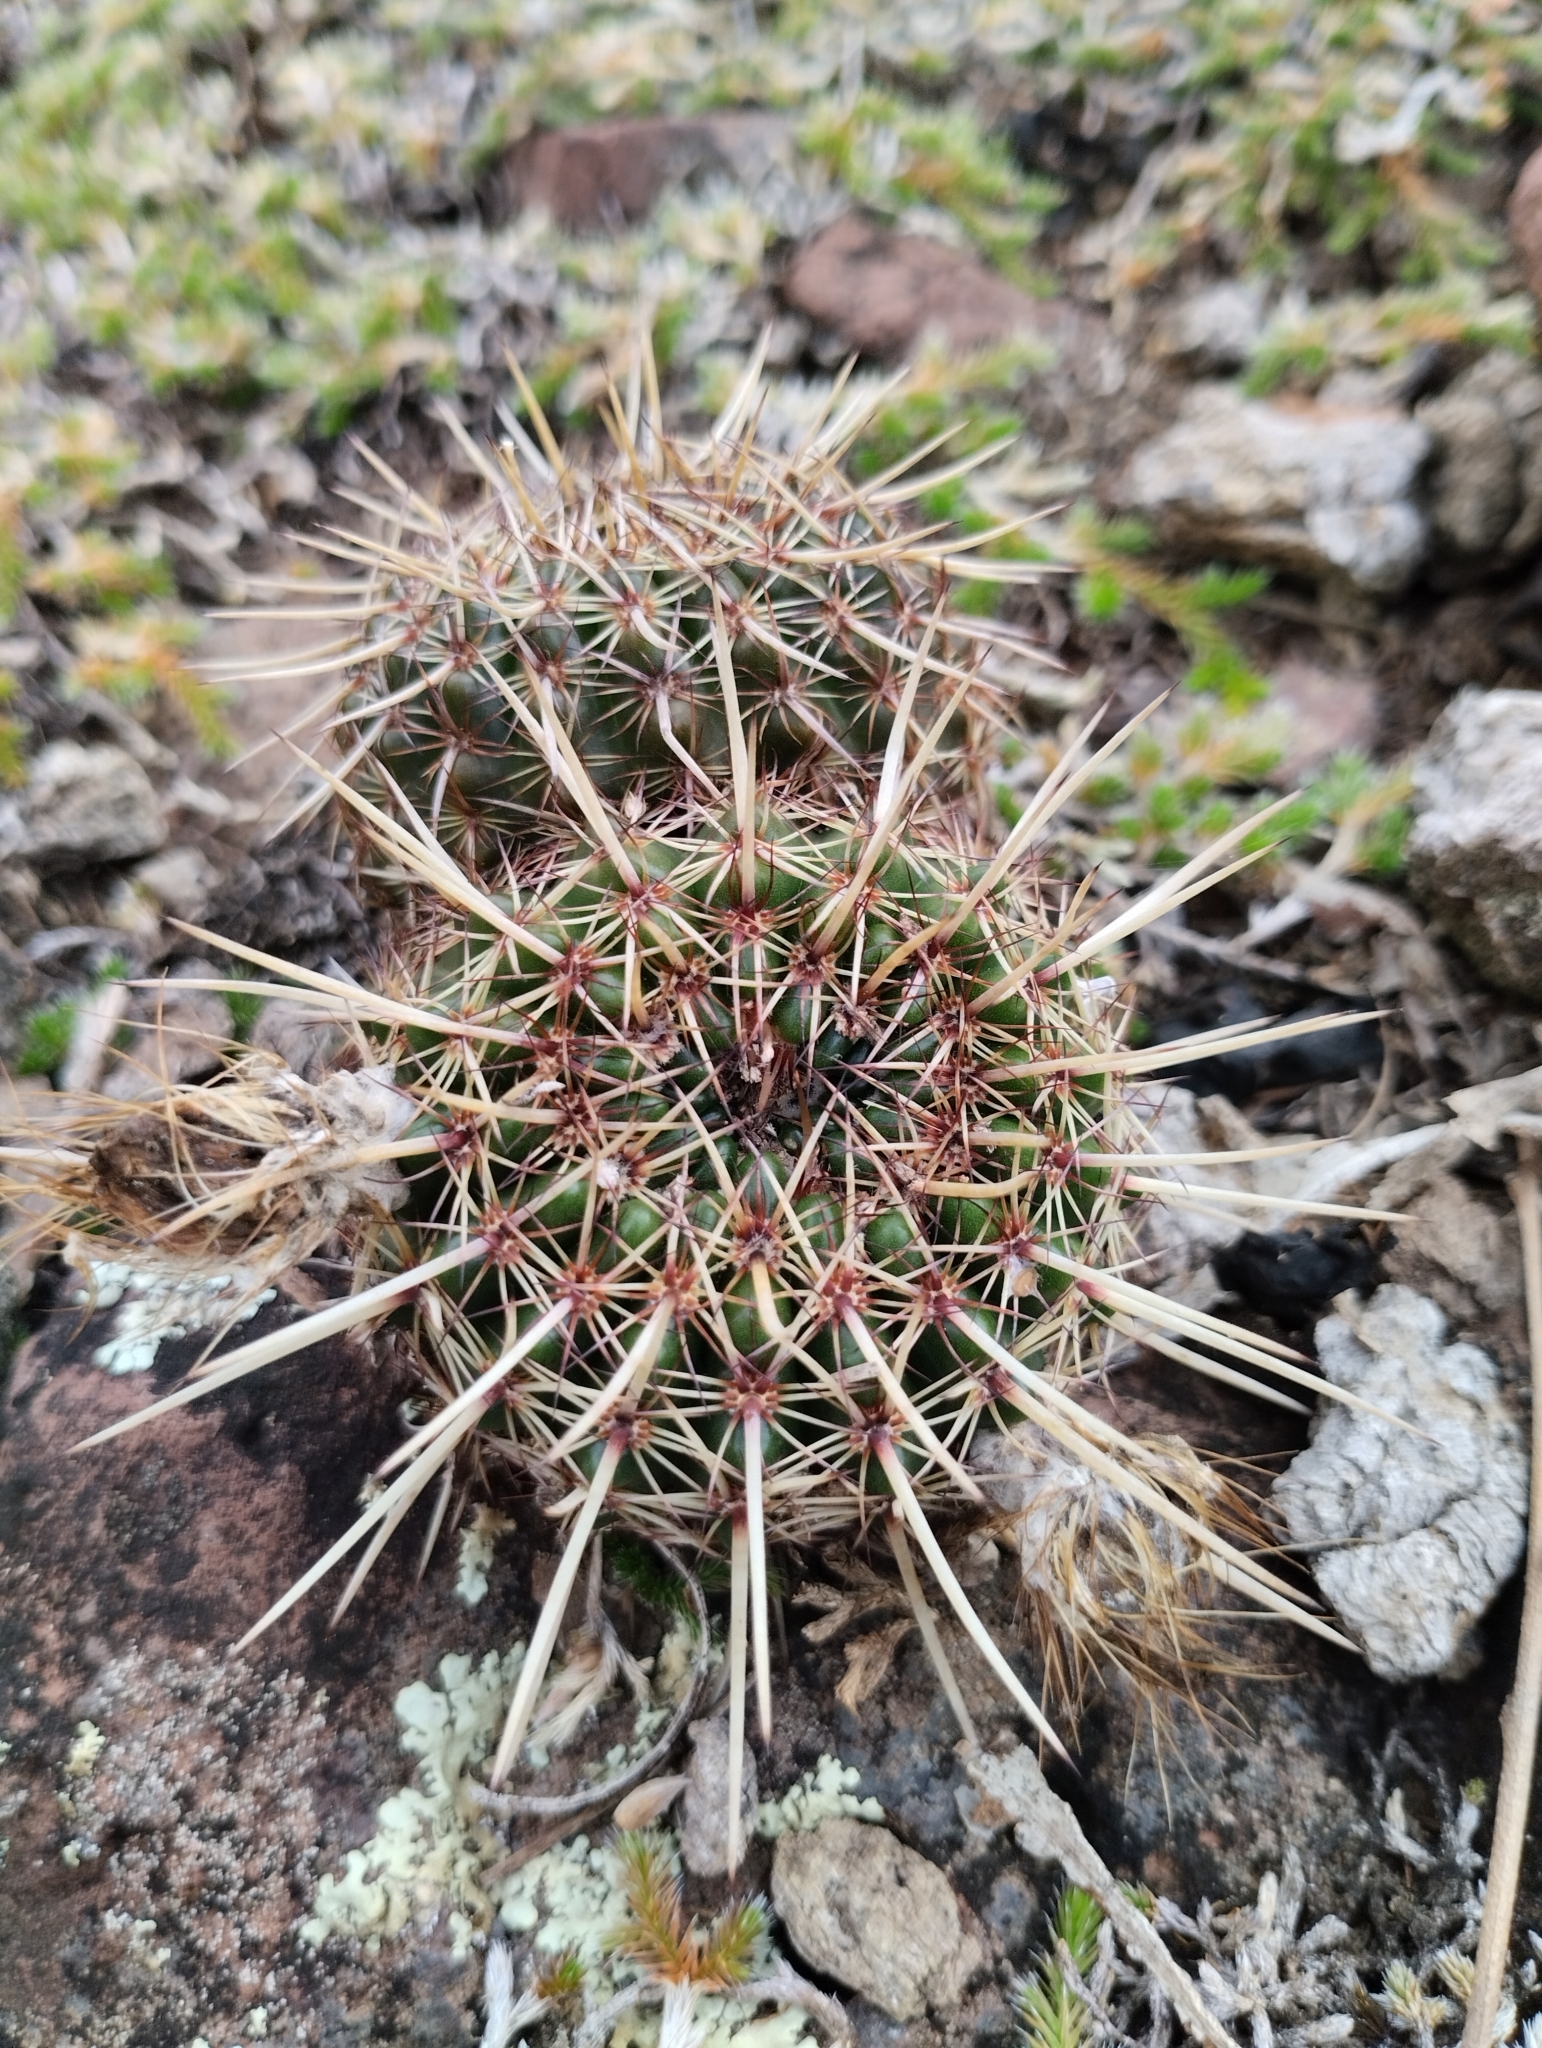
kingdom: Plantae
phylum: Tracheophyta
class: Magnoliopsida
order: Caryophyllales
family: Cactaceae
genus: Parodia
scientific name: Parodia mammulosa
